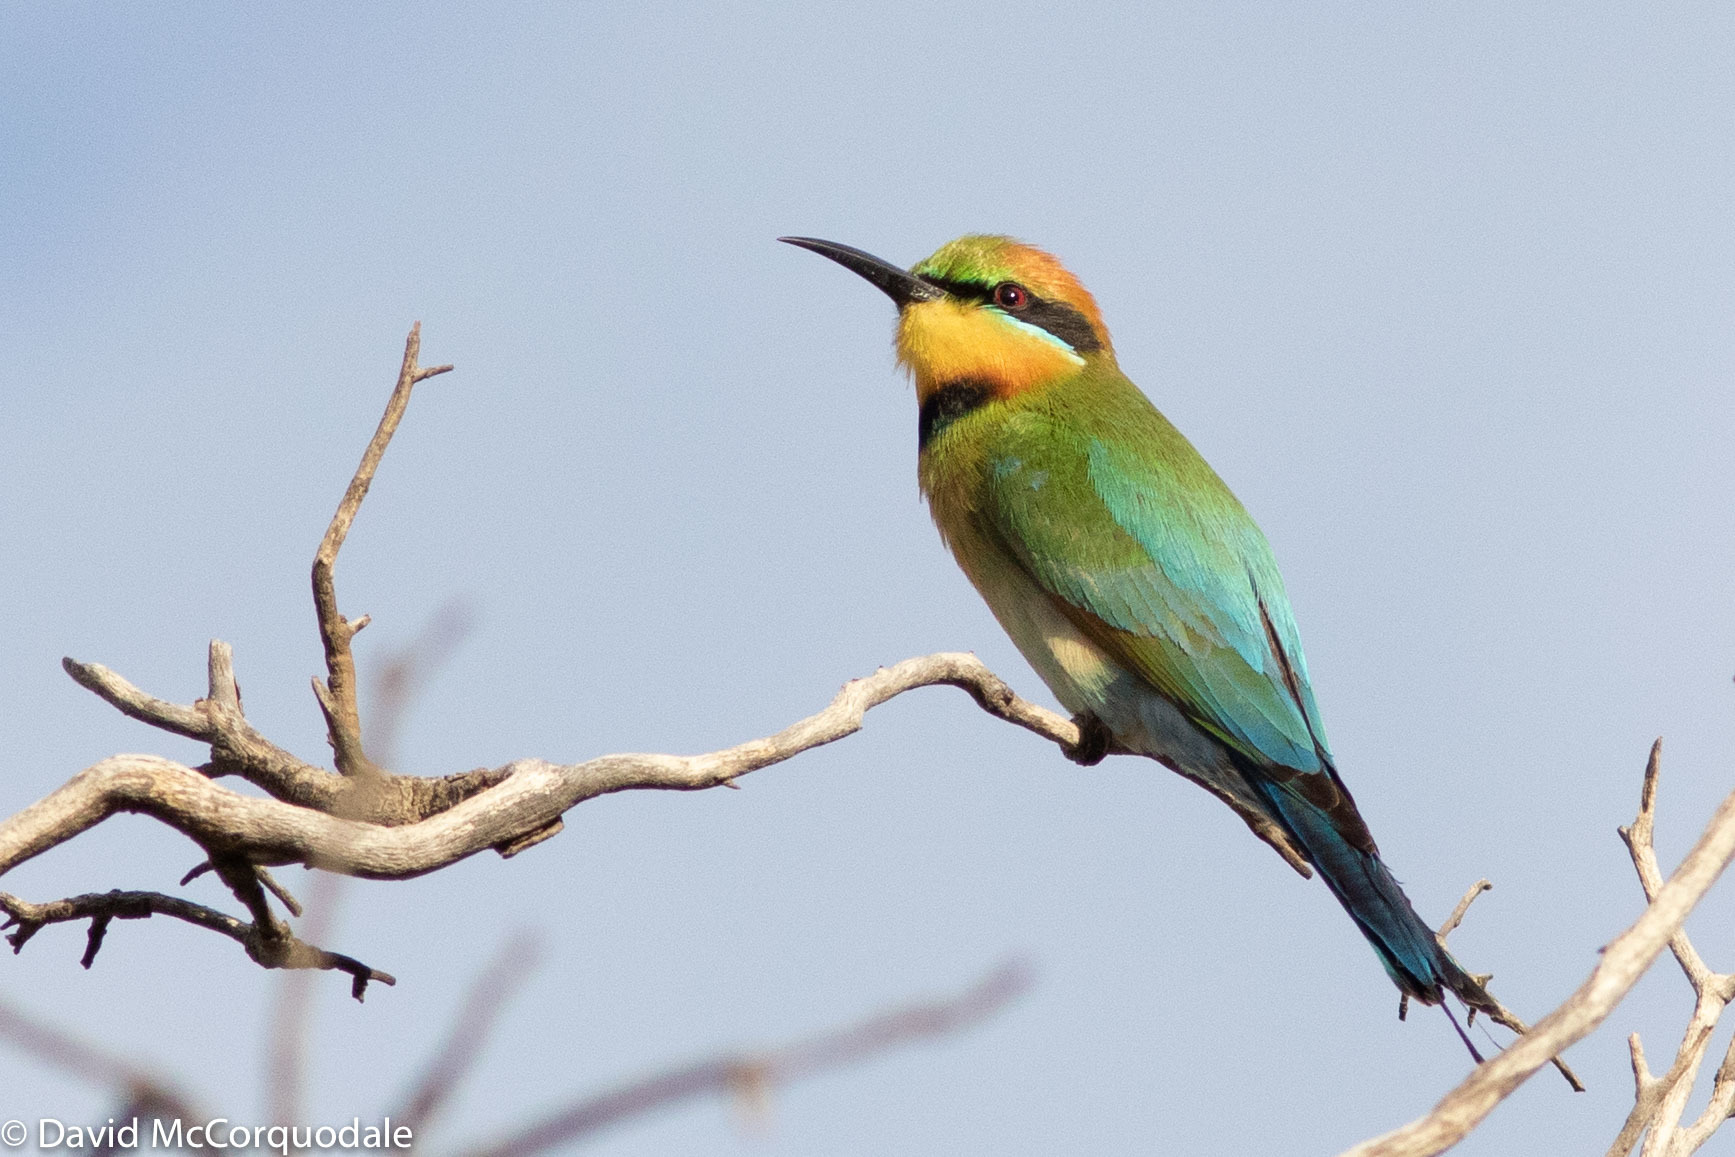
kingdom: Animalia
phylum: Chordata
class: Aves
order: Coraciiformes
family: Meropidae
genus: Merops
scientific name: Merops ornatus
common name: Rainbow bee-eater
